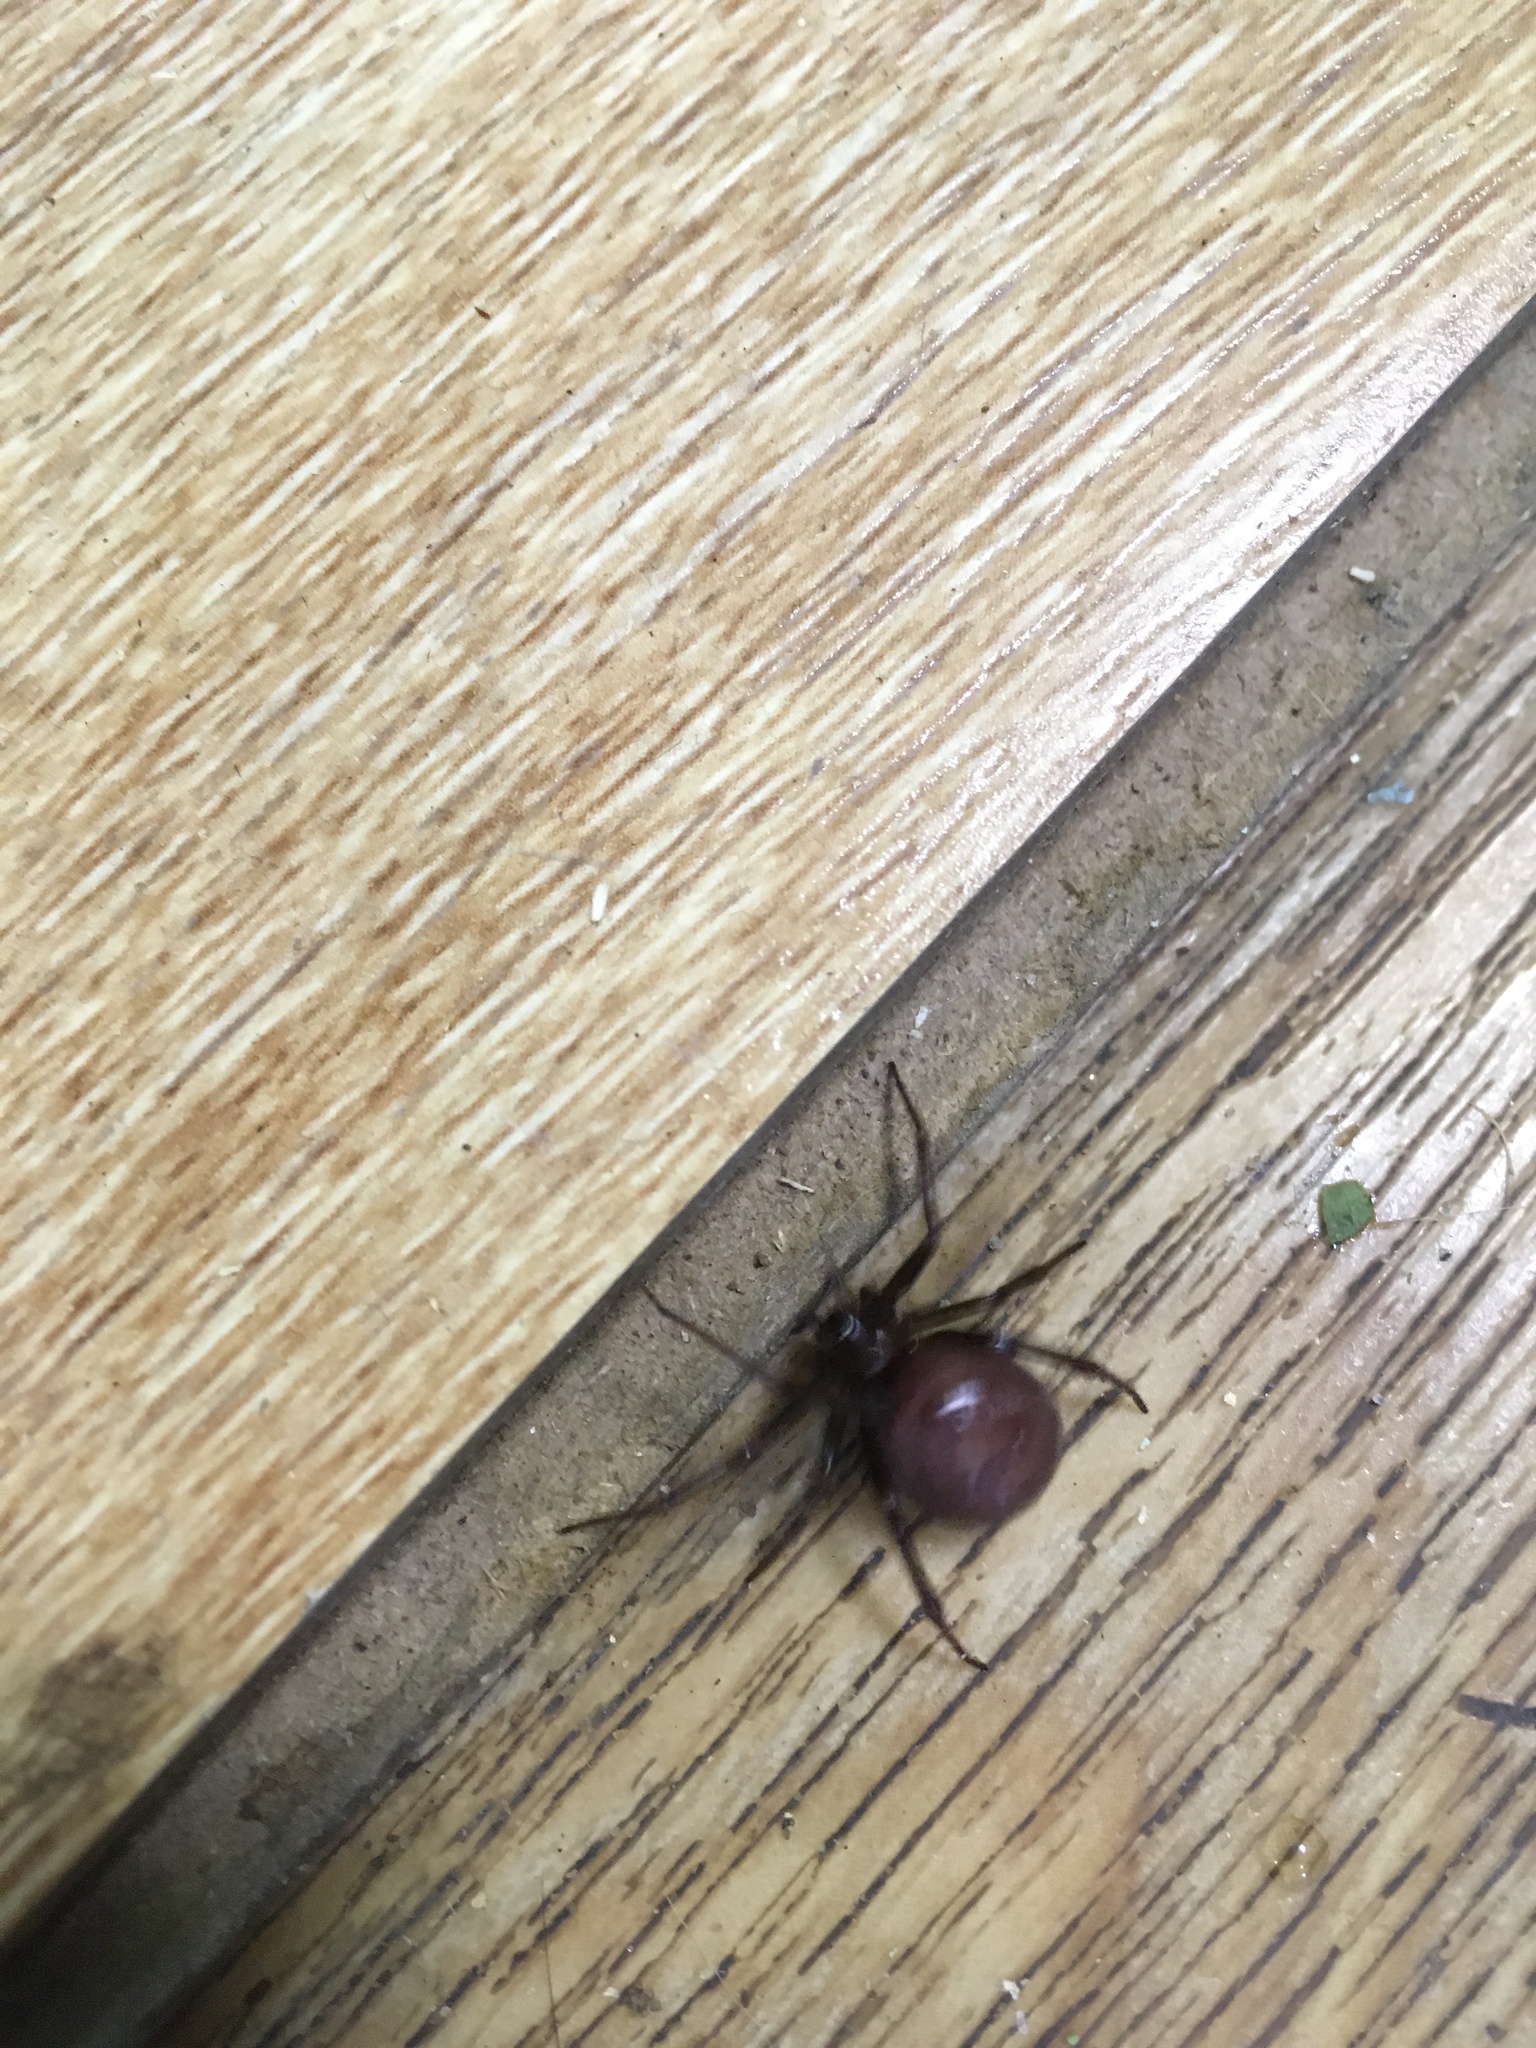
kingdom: Animalia
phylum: Arthropoda
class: Arachnida
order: Araneae
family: Theridiidae
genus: Steatoda
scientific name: Steatoda grossa
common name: False black widow
